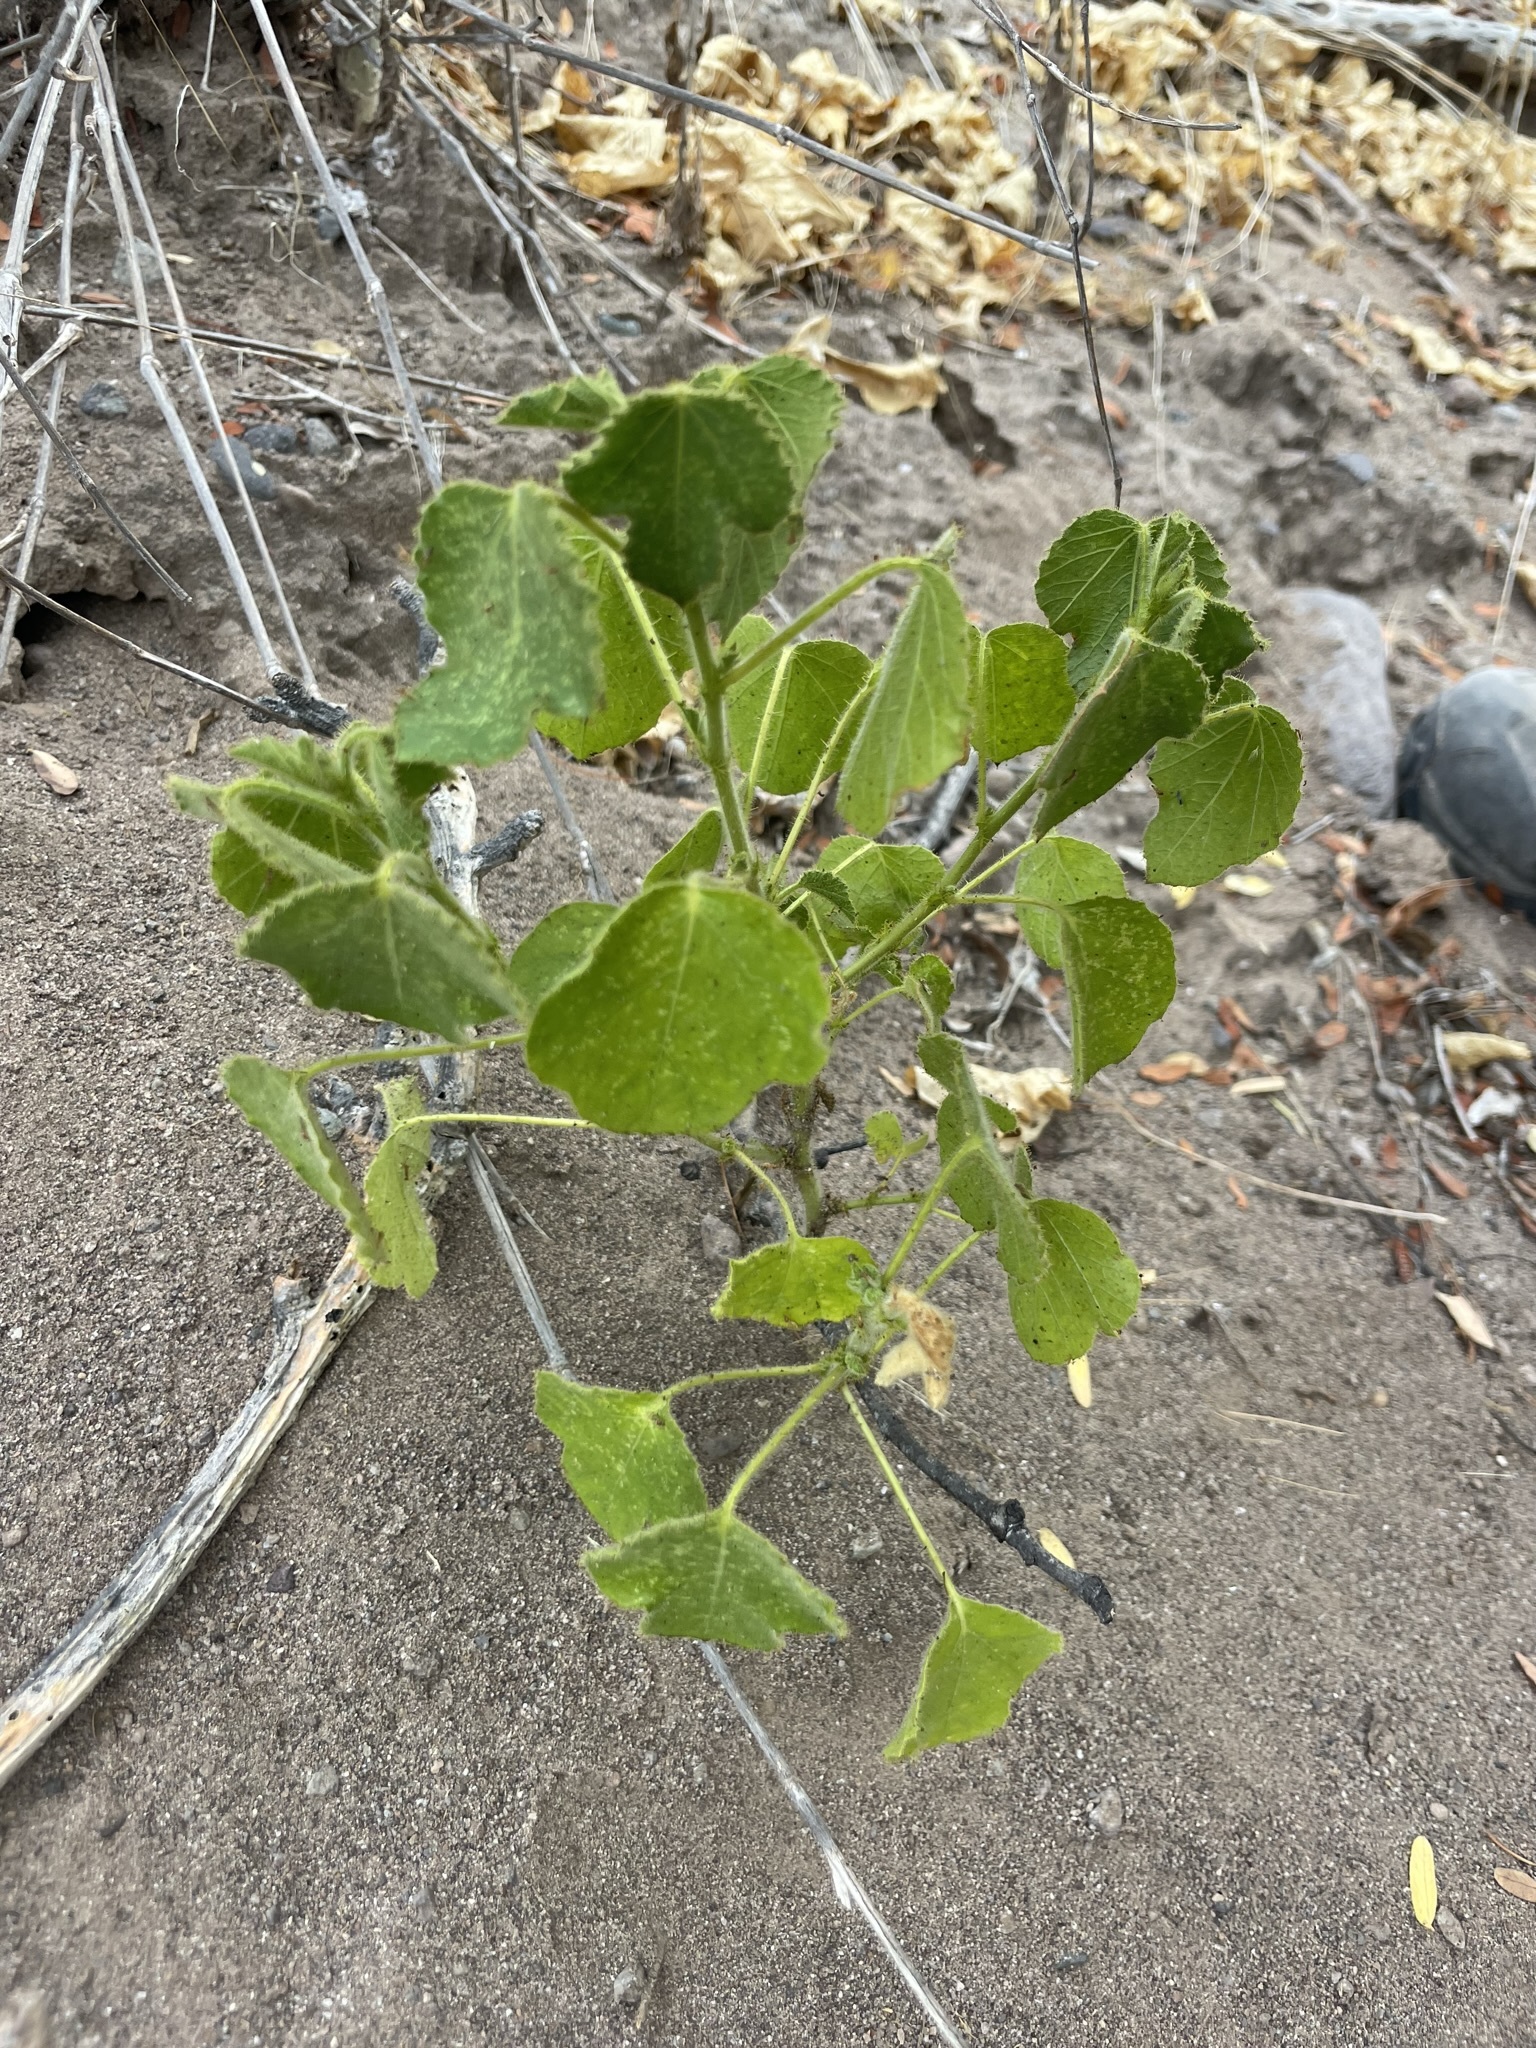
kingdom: Plantae
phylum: Tracheophyta
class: Magnoliopsida
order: Malpighiales
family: Passifloraceae
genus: Passiflora
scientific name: Passiflora palmeri
